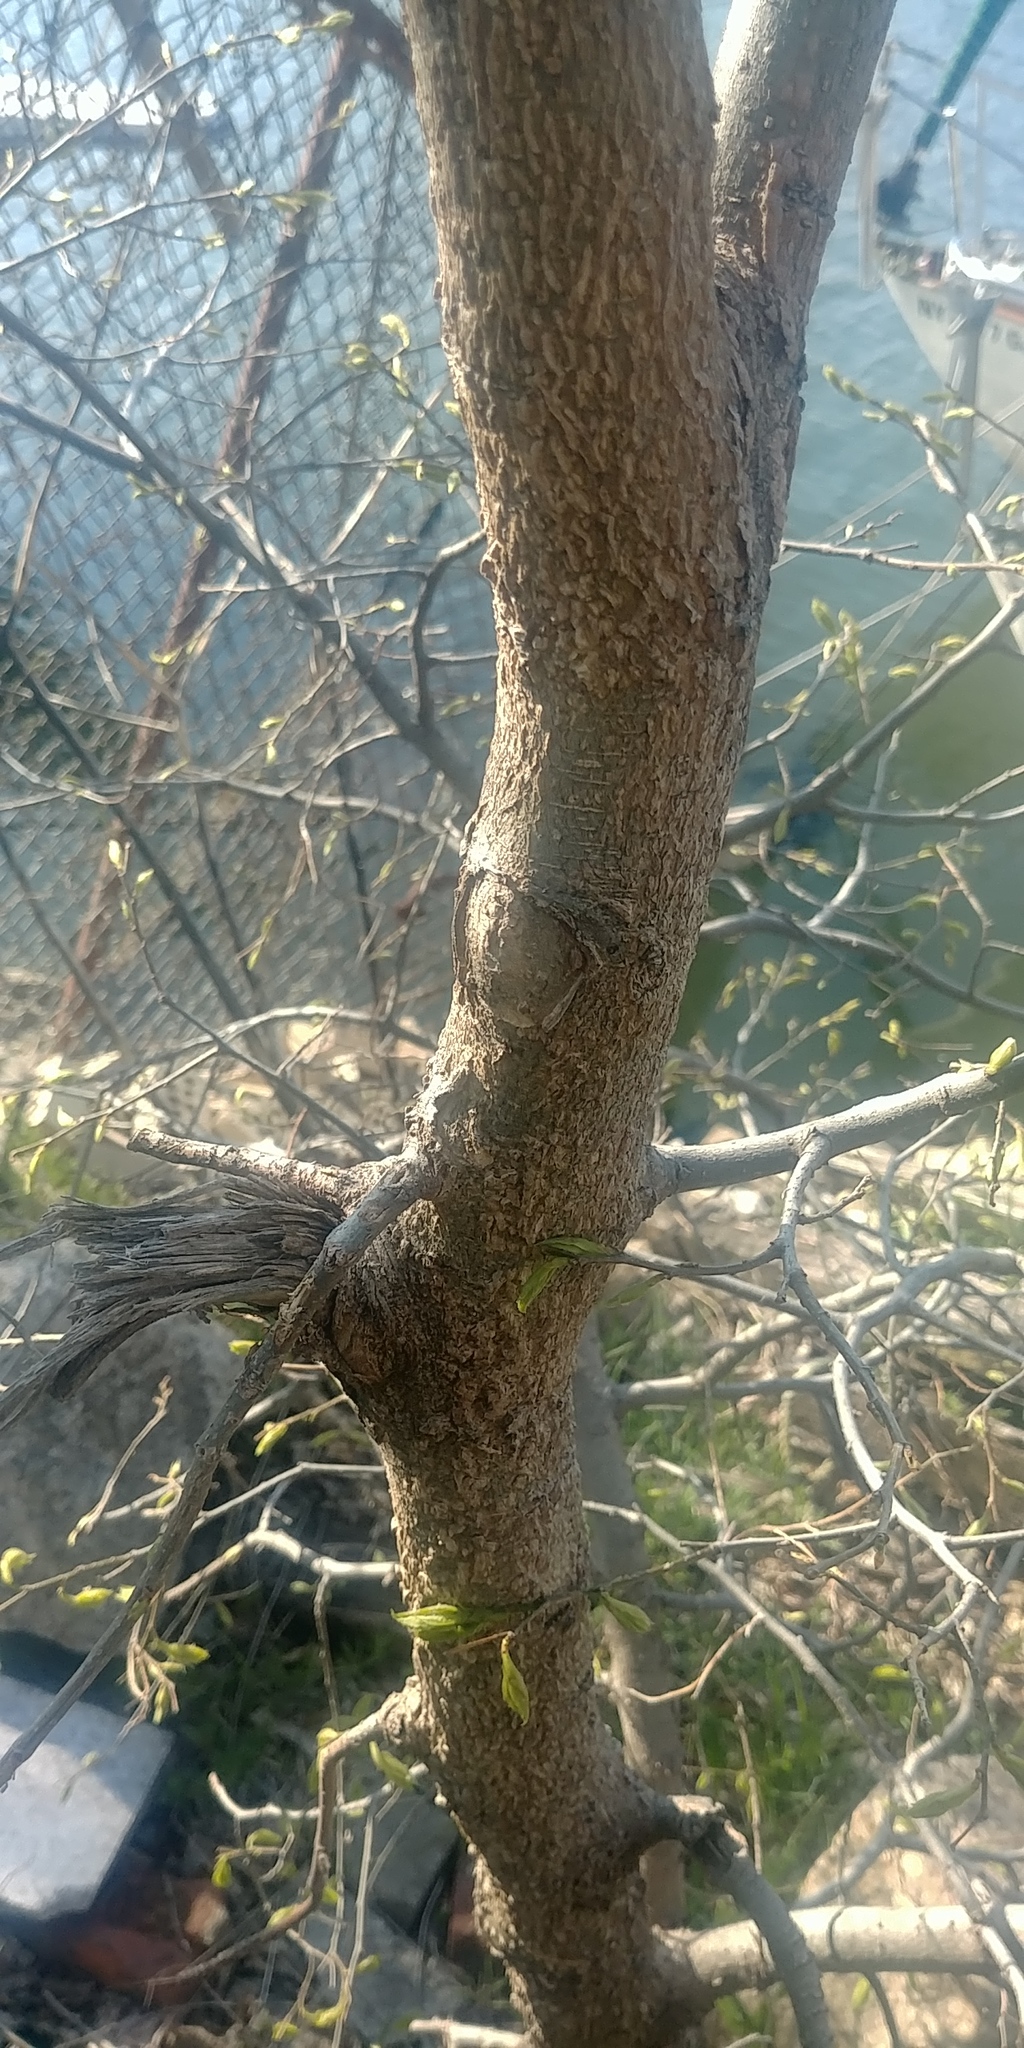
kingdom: Plantae
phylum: Tracheophyta
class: Magnoliopsida
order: Rosales
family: Cannabaceae
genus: Celtis
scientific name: Celtis occidentalis
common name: Common hackberry
